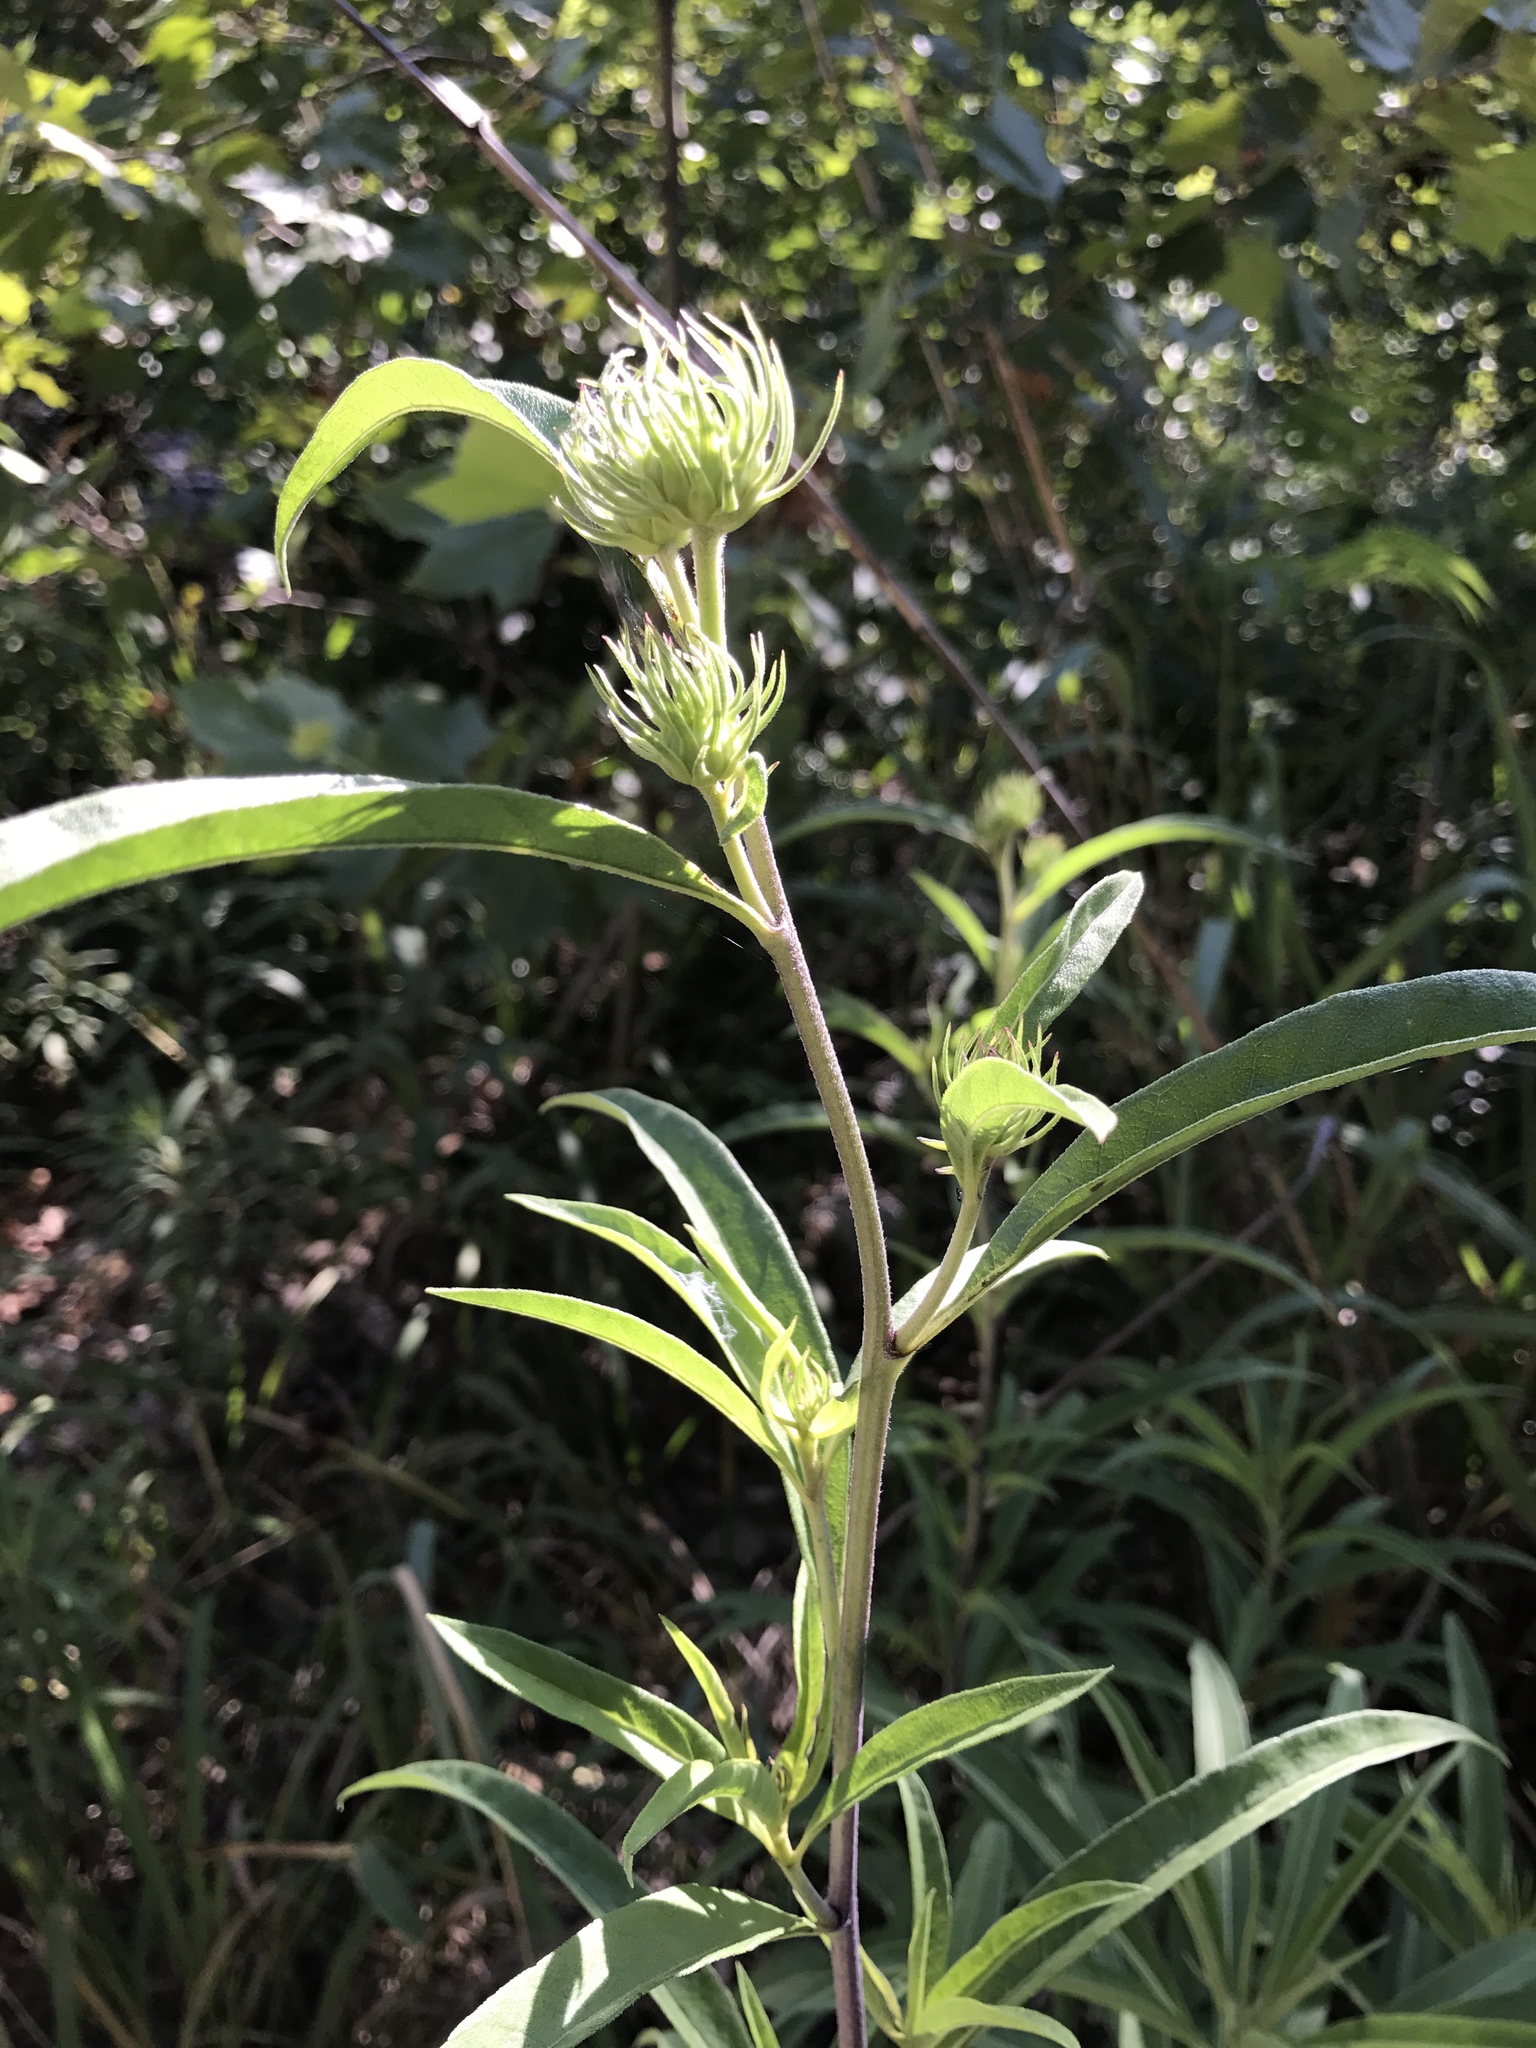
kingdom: Plantae
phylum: Tracheophyta
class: Magnoliopsida
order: Asterales
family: Asteraceae
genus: Helianthus
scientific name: Helianthus maximiliani
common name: Maximilian's sunflower
